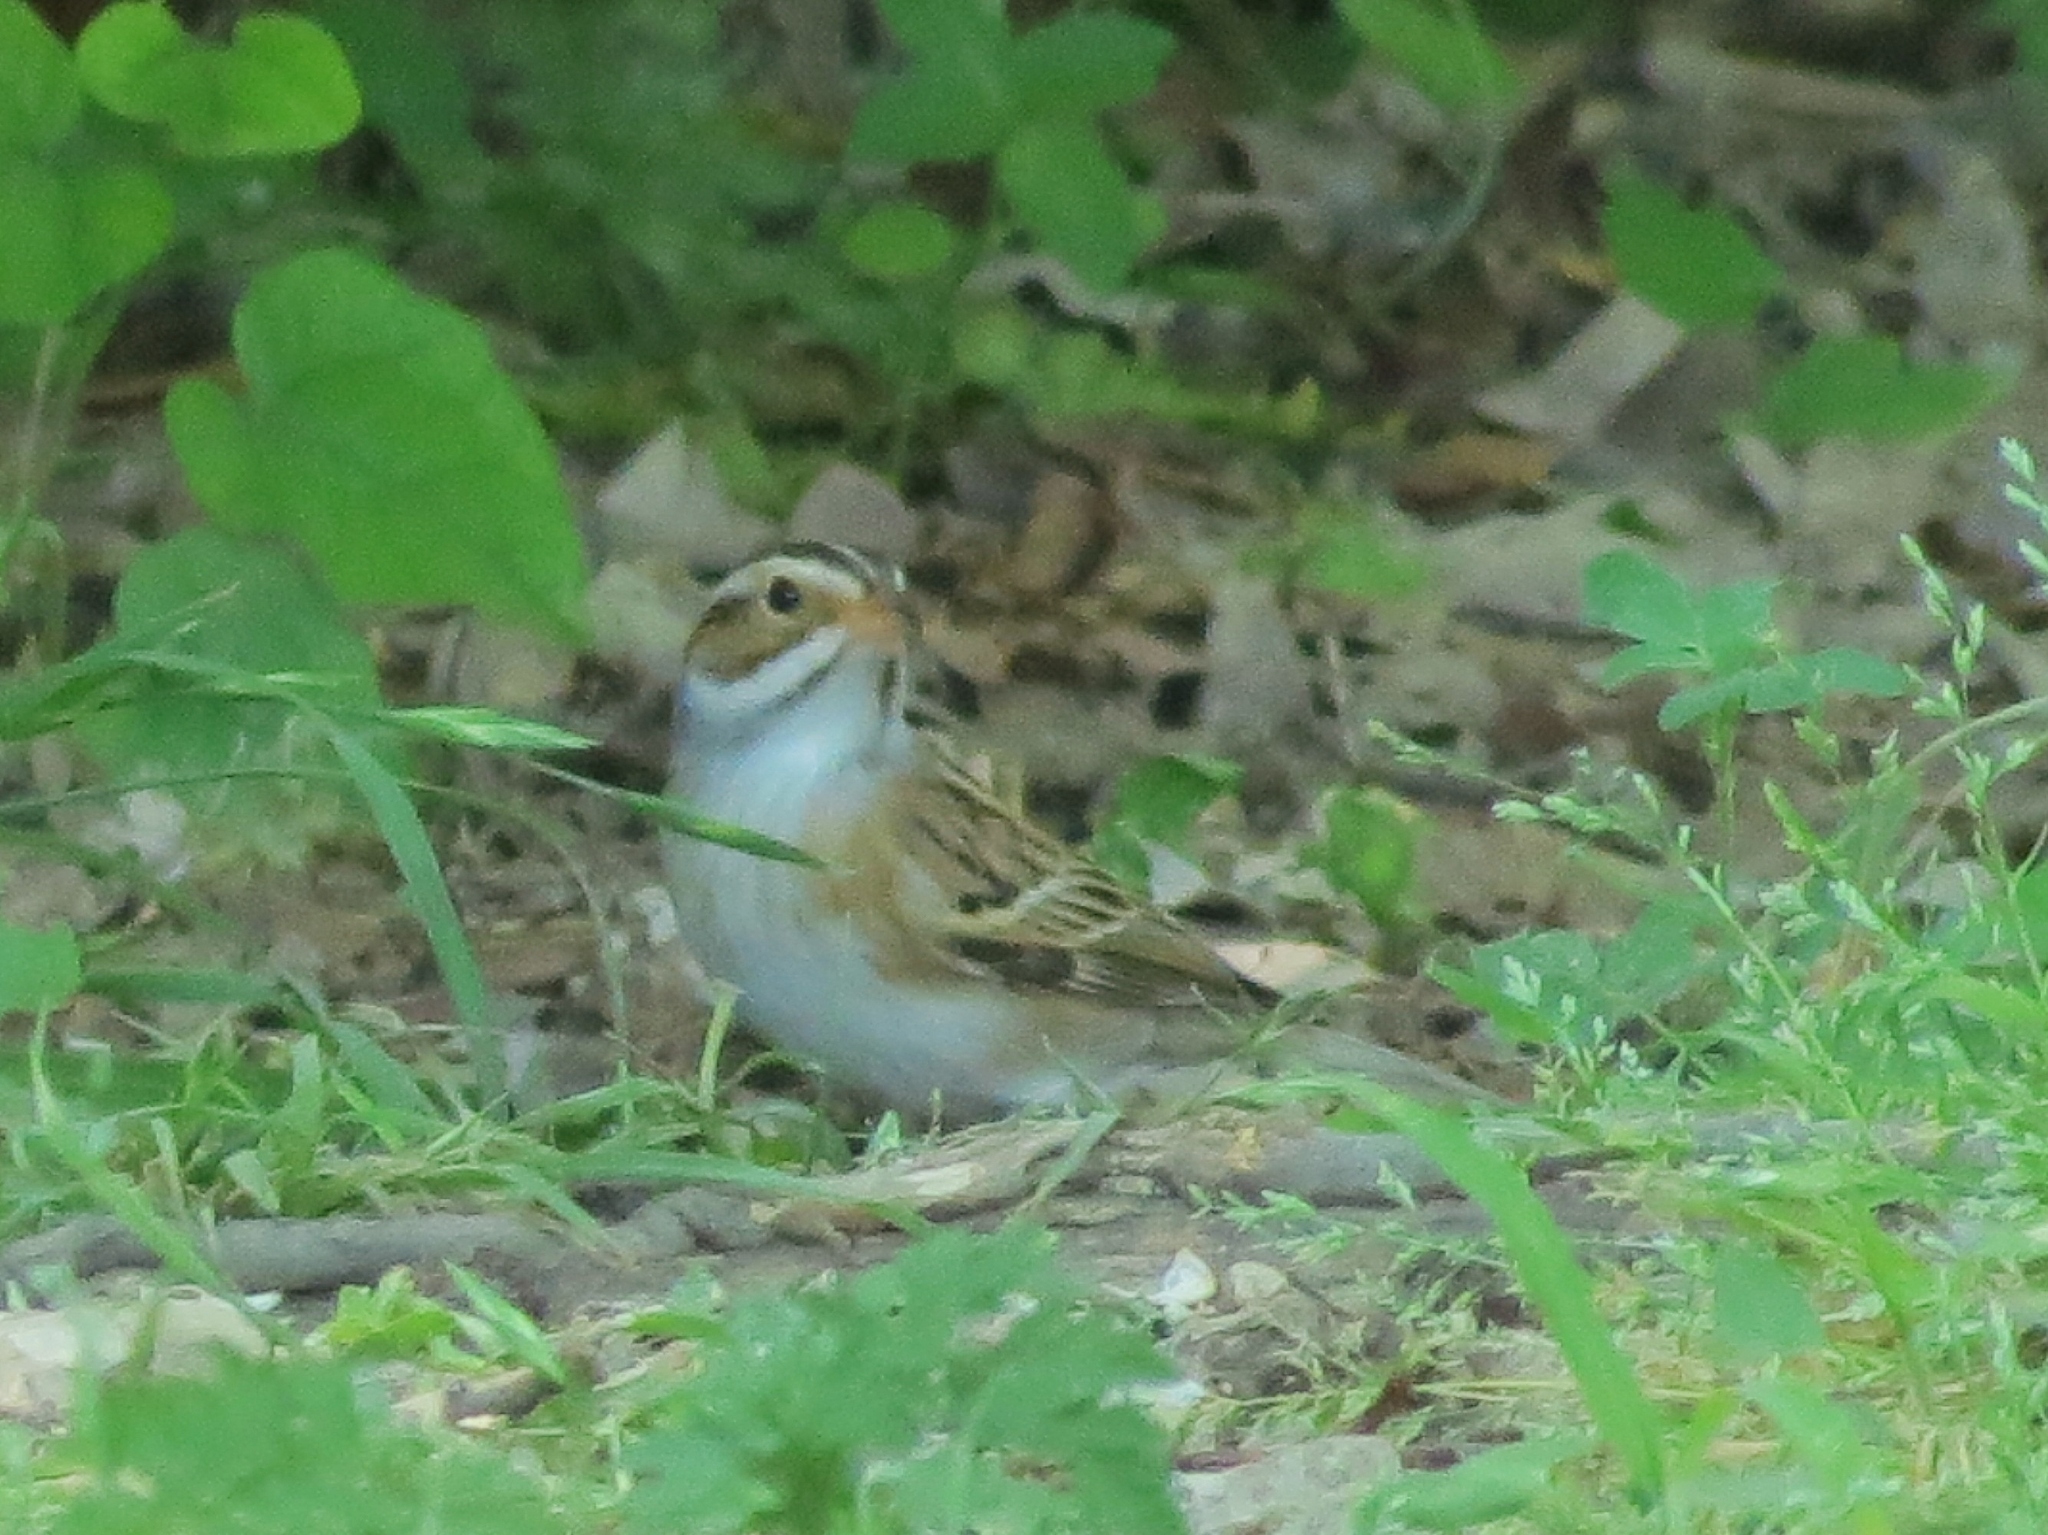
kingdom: Animalia
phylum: Chordata
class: Aves
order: Passeriformes
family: Passerellidae
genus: Spizella
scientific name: Spizella pallida
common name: Clay-colored sparrow
